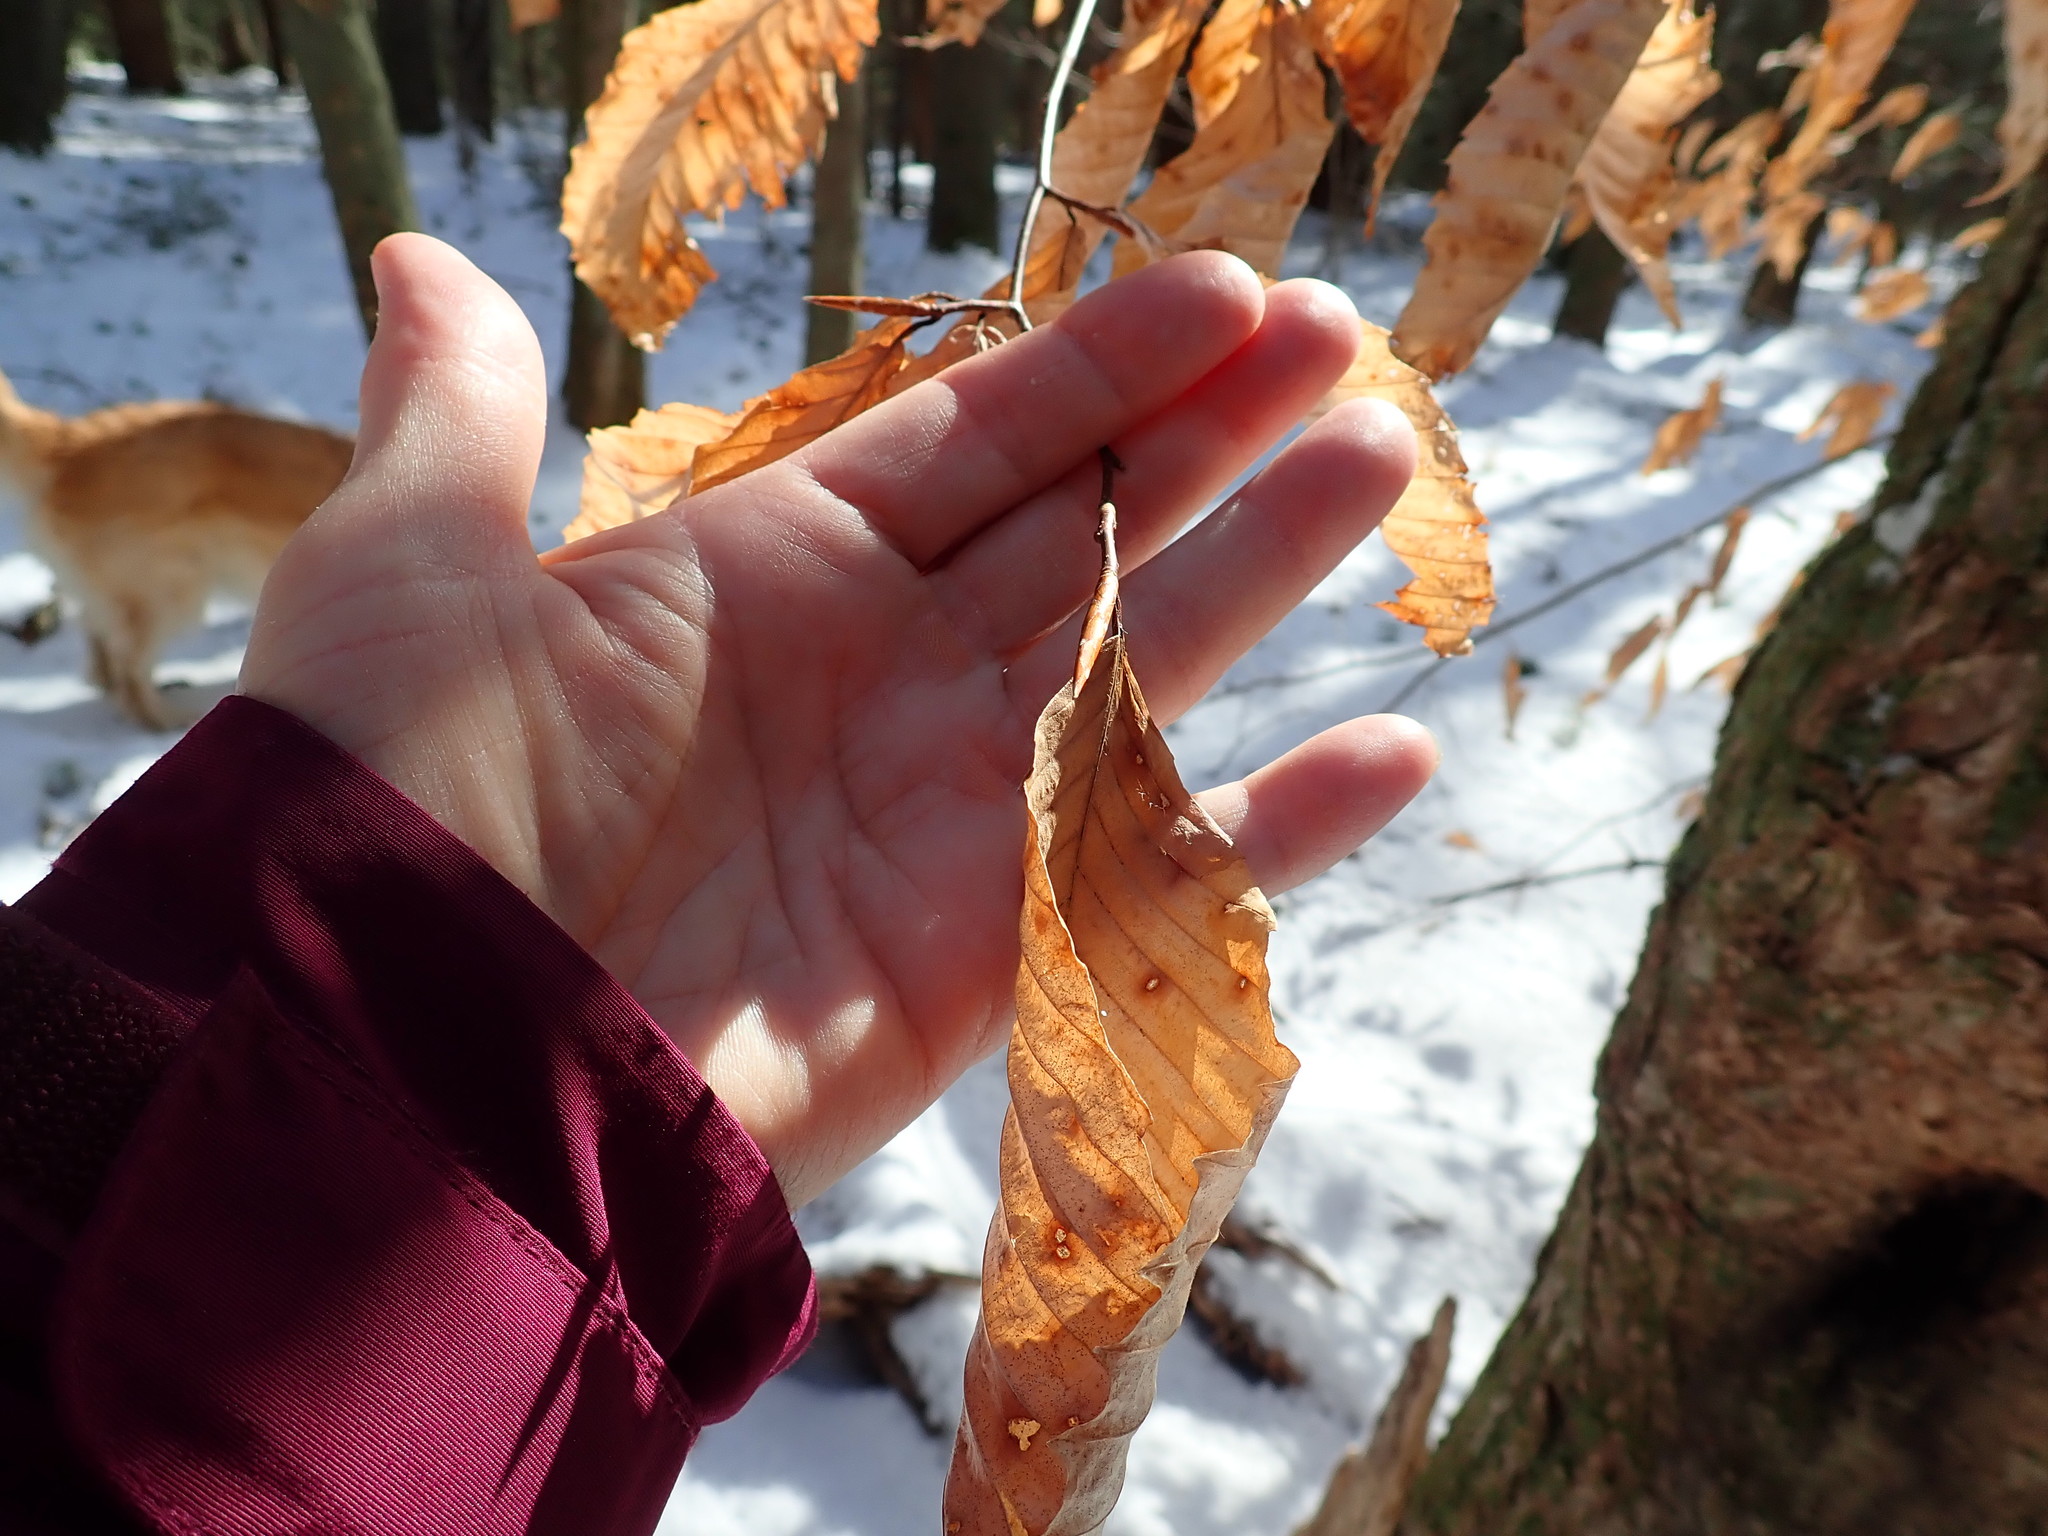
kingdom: Plantae
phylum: Tracheophyta
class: Magnoliopsida
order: Fagales
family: Fagaceae
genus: Fagus
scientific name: Fagus grandifolia
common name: American beech
